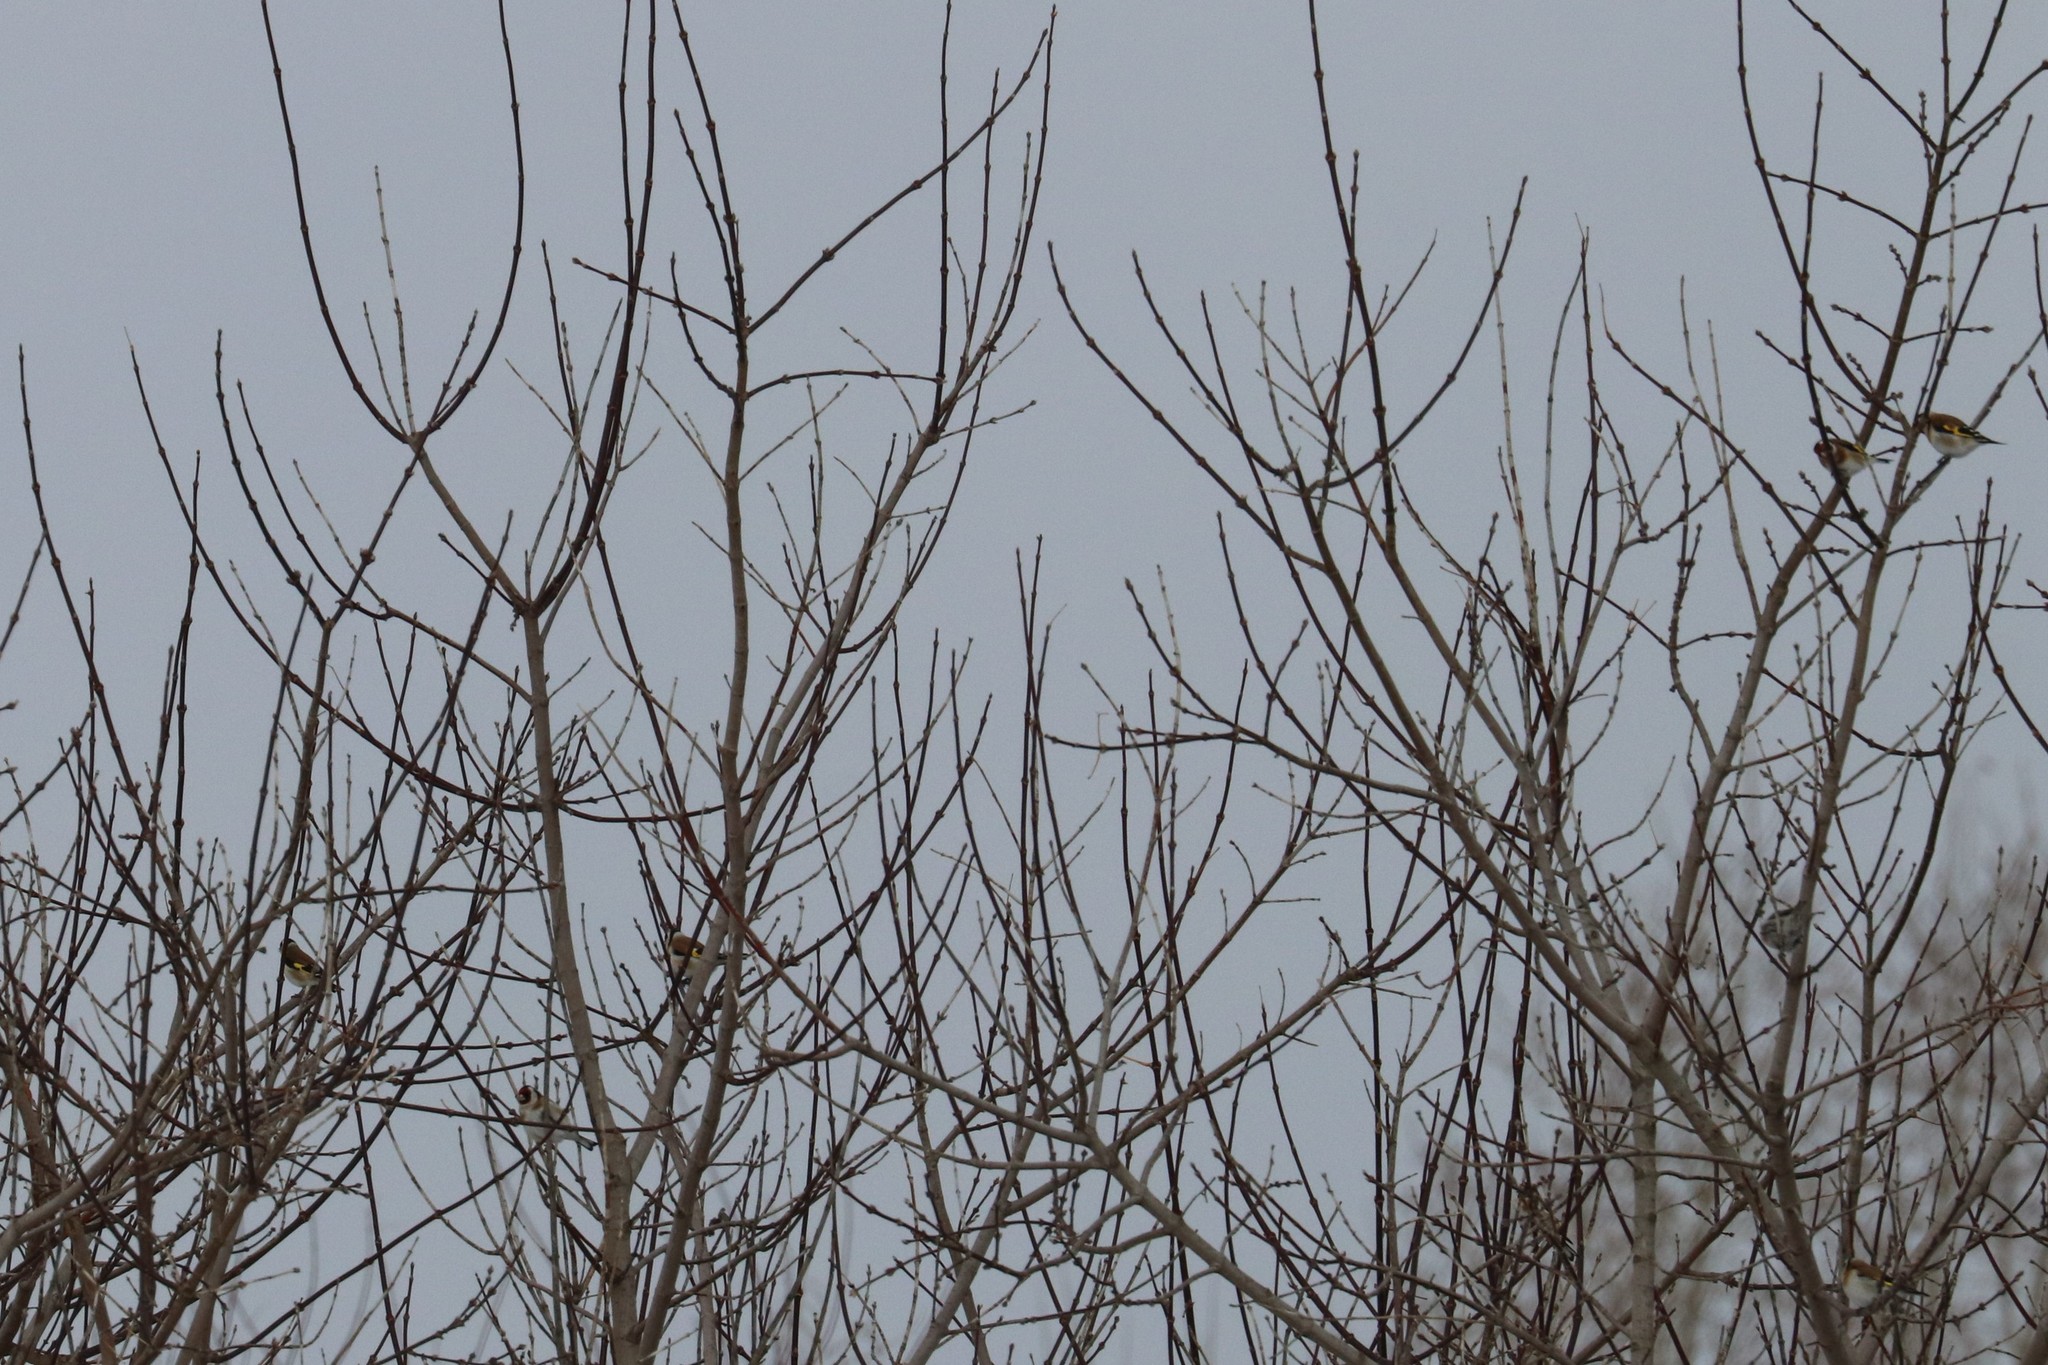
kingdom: Animalia
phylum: Chordata
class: Aves
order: Passeriformes
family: Fringillidae
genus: Carduelis
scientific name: Carduelis carduelis
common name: European goldfinch
